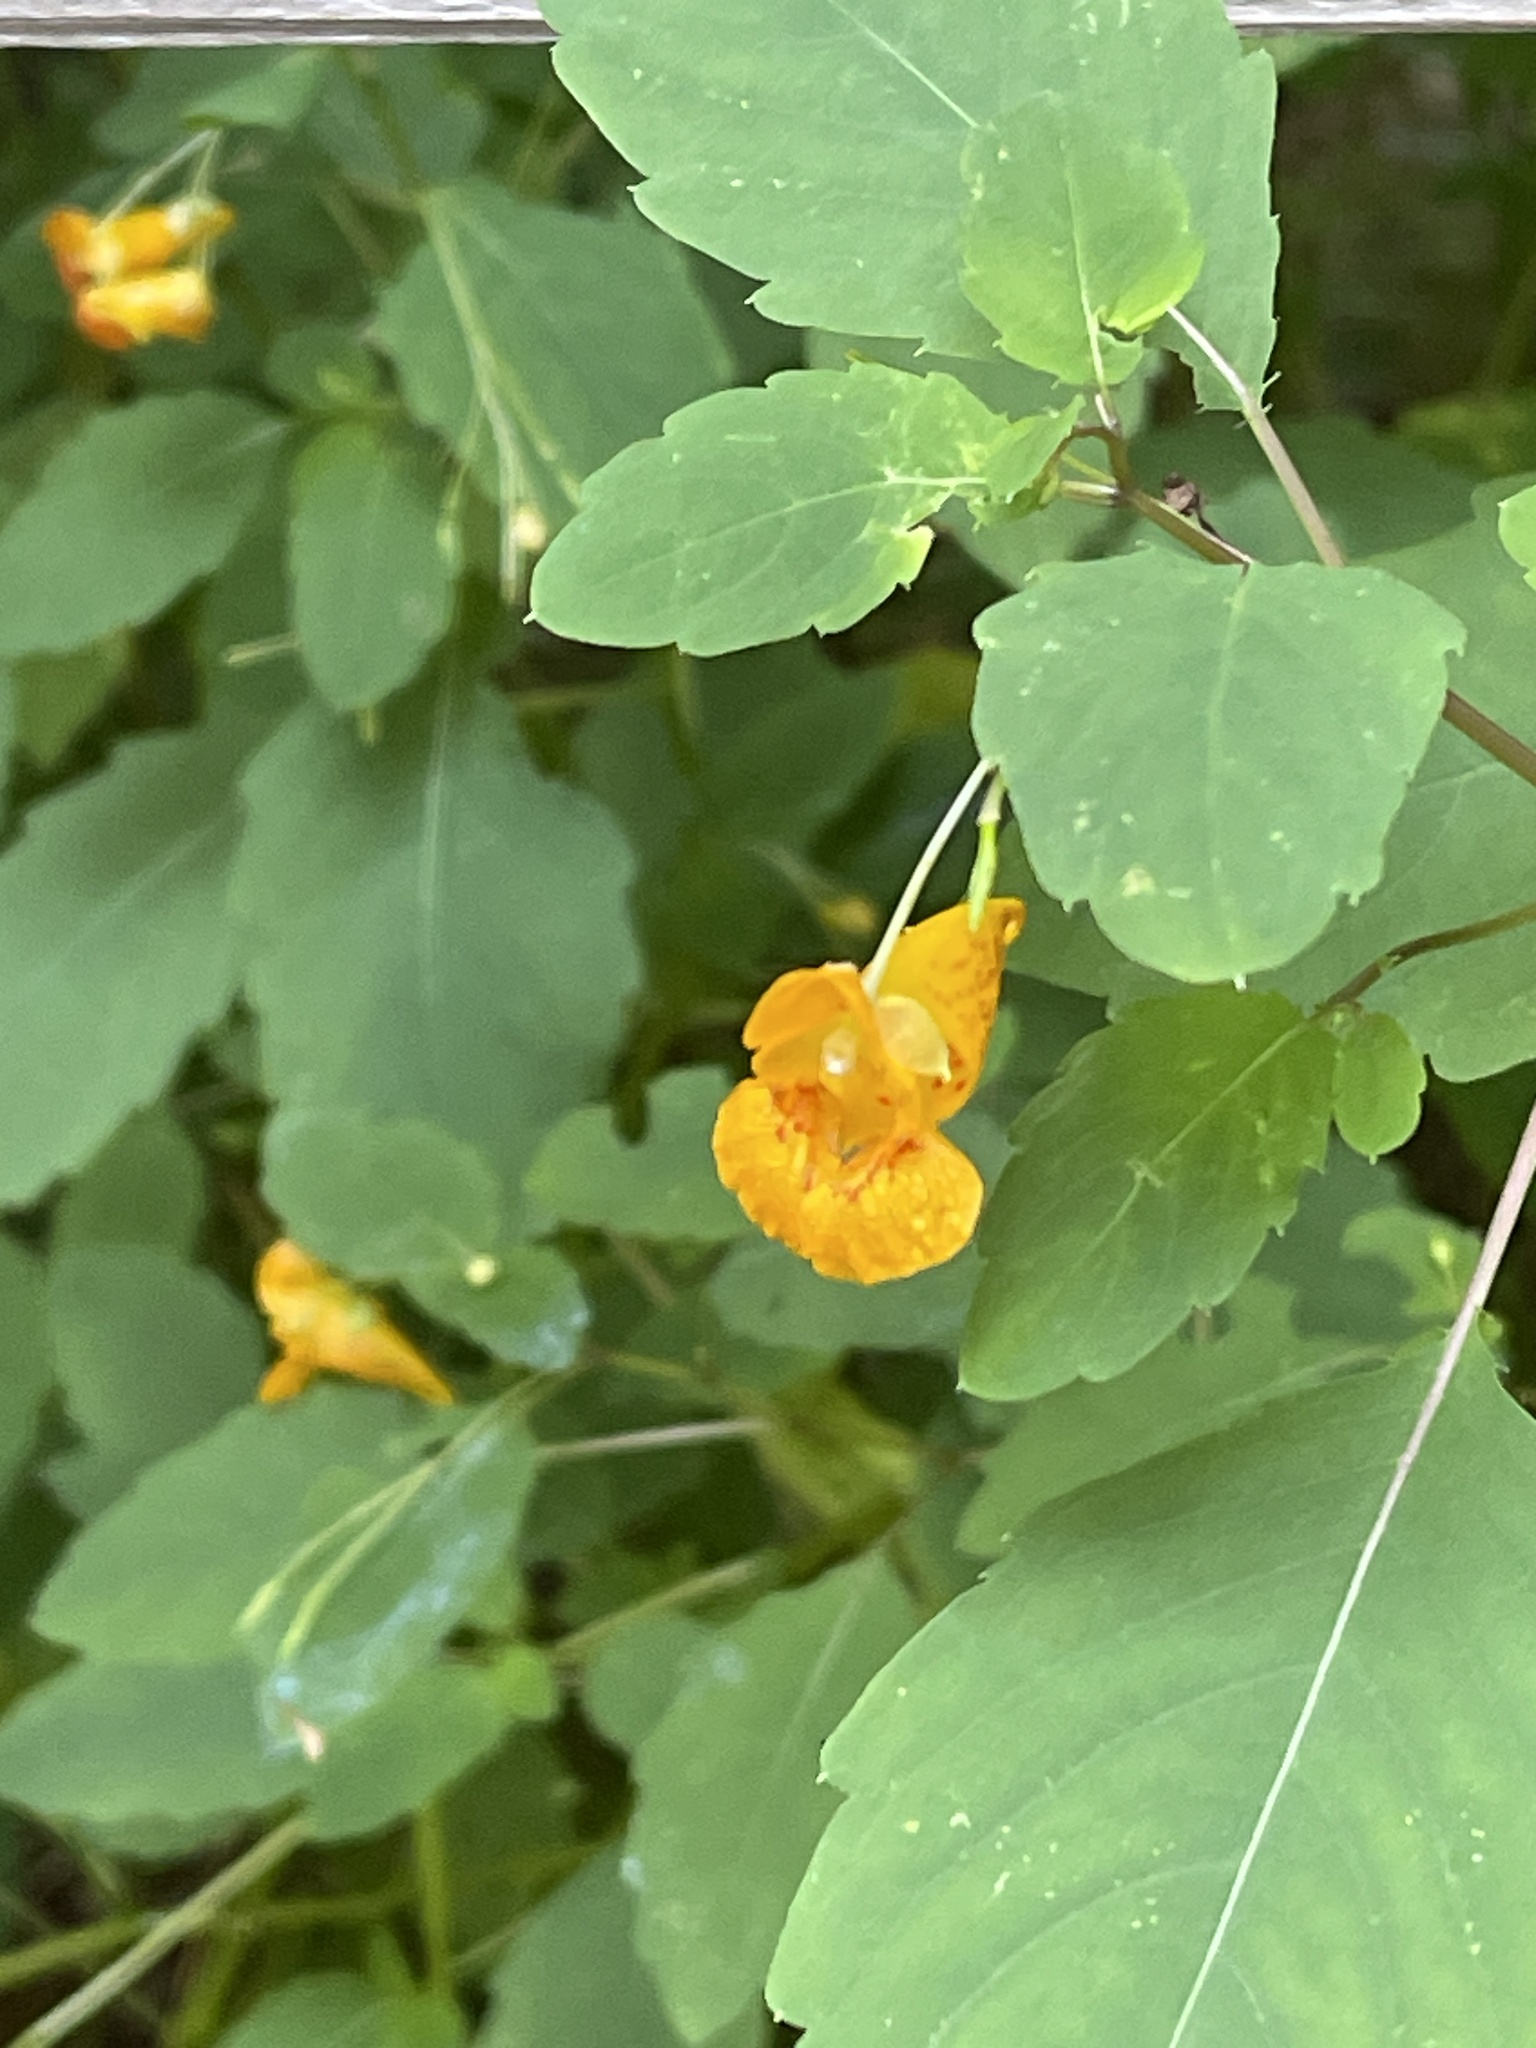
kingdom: Plantae
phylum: Tracheophyta
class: Magnoliopsida
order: Ericales
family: Balsaminaceae
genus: Impatiens
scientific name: Impatiens capensis
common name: Orange balsam
